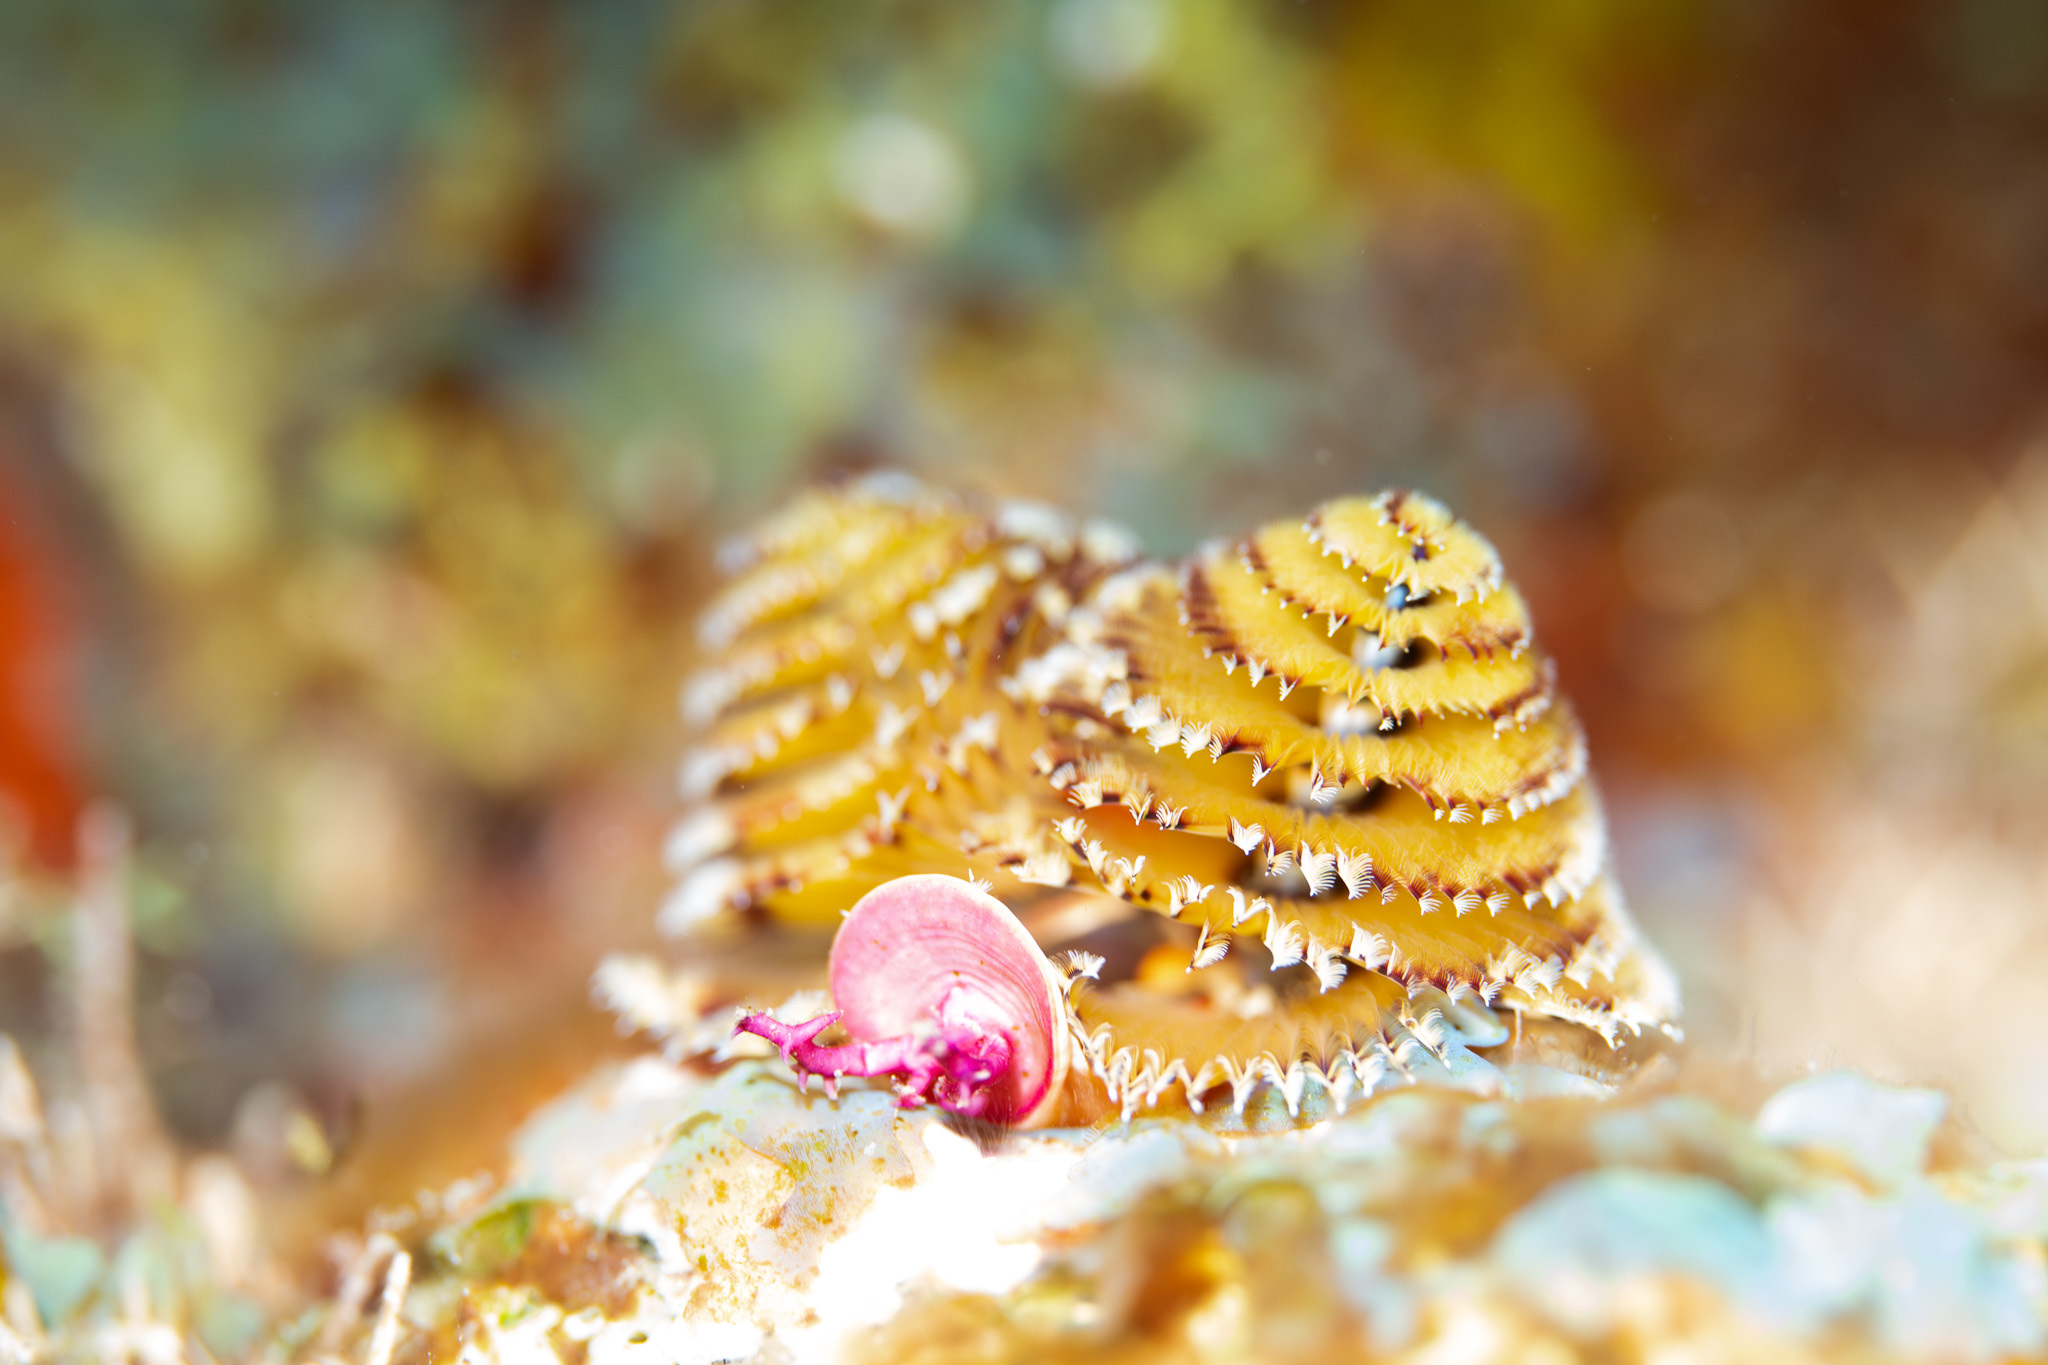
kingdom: Animalia
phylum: Annelida
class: Polychaeta
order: Sabellida
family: Serpulidae
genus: Spirobranchus
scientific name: Spirobranchus giganteus
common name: Christmas tree worm
